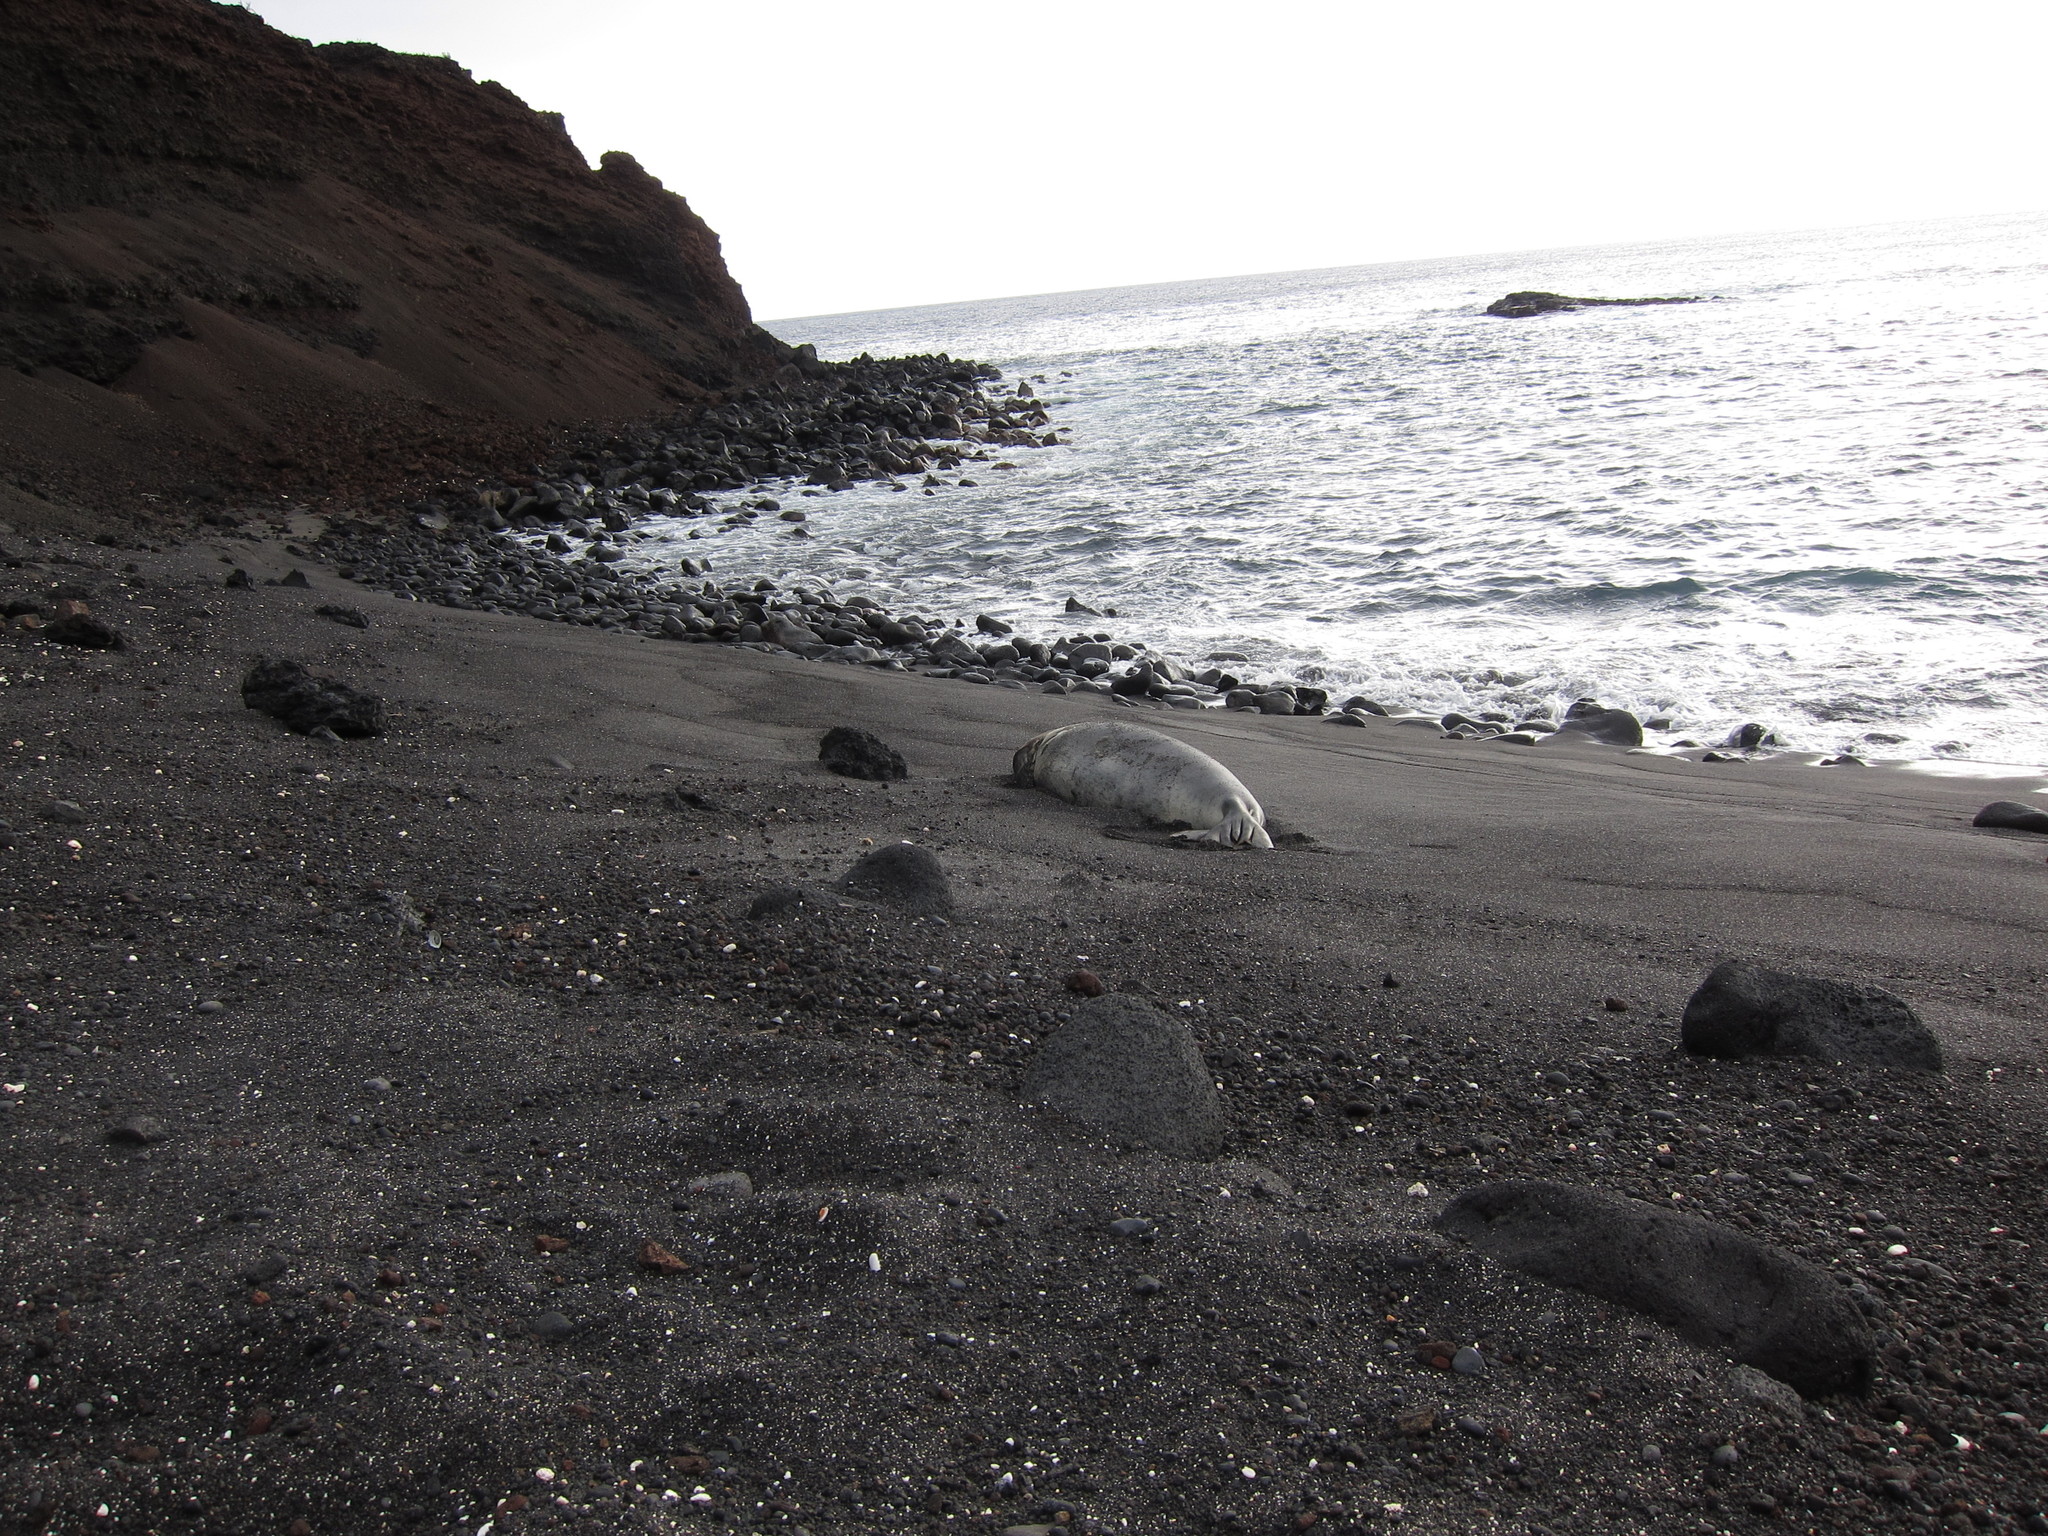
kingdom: Animalia
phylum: Chordata
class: Mammalia
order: Carnivora
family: Phocidae
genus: Neomonachus
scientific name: Neomonachus schauinslandi
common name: Hawaiian monk seal
